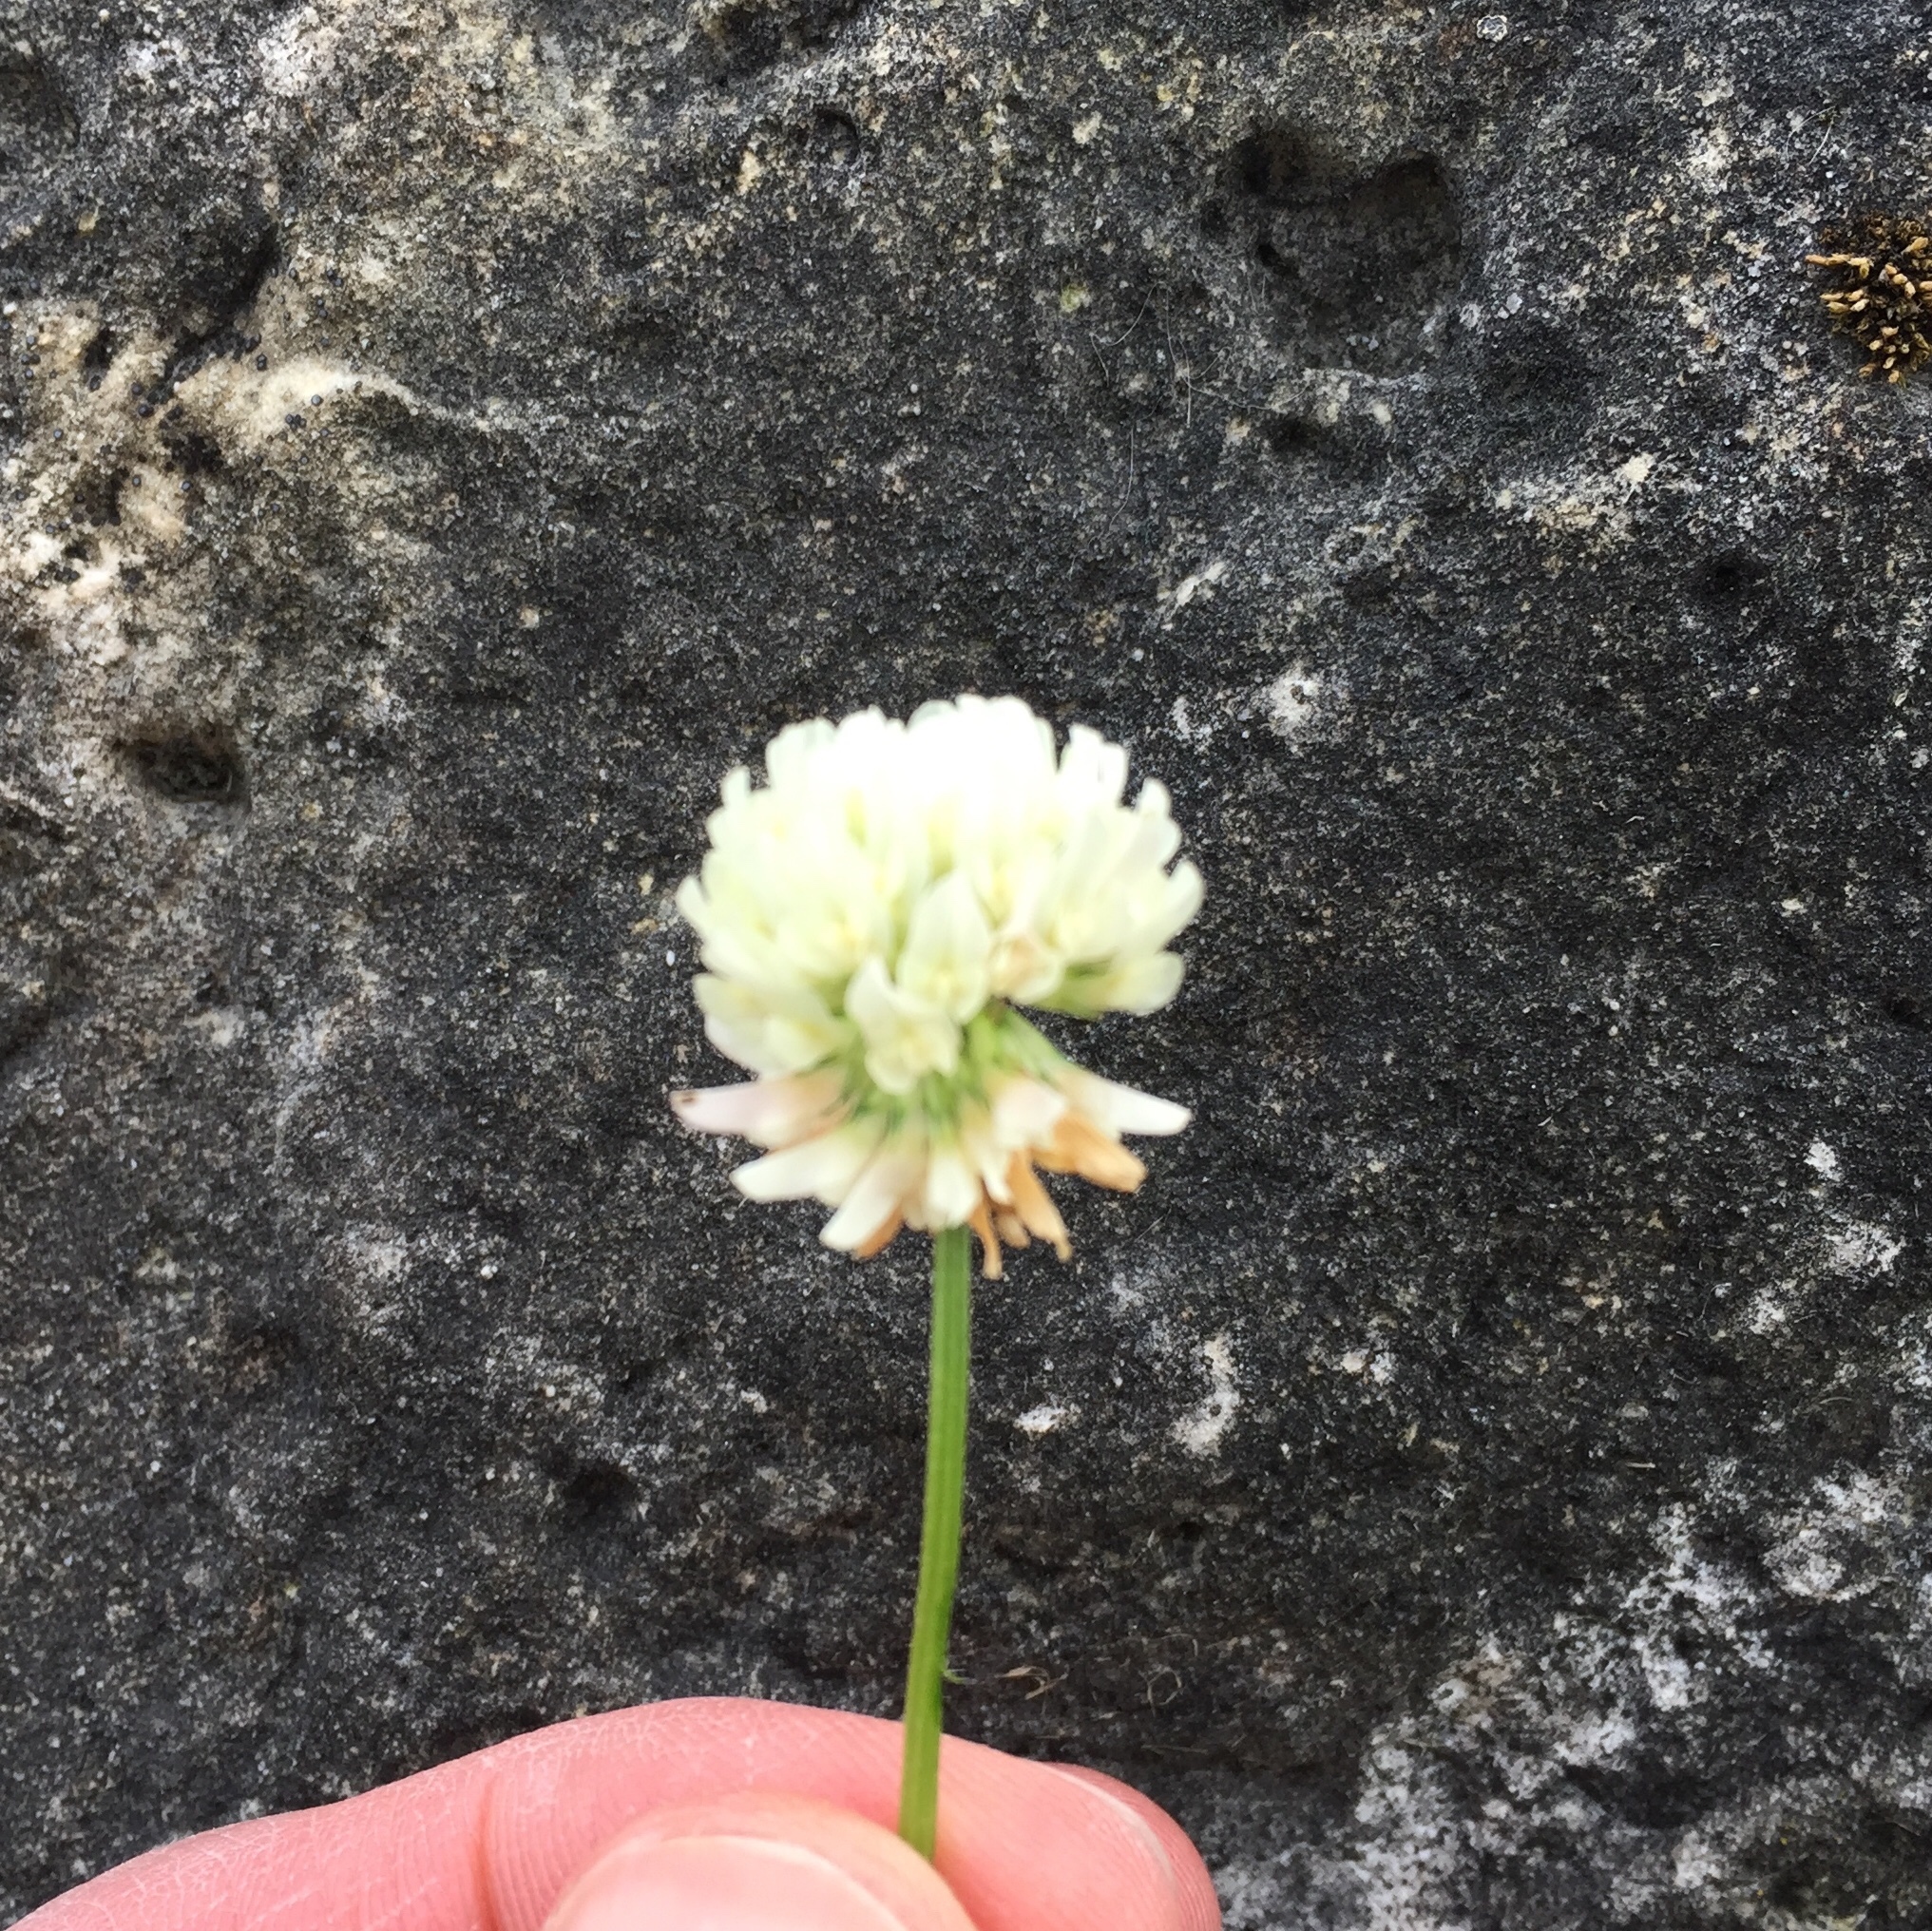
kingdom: Plantae
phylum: Tracheophyta
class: Magnoliopsida
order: Fabales
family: Fabaceae
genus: Trifolium
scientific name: Trifolium repens
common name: White clover
